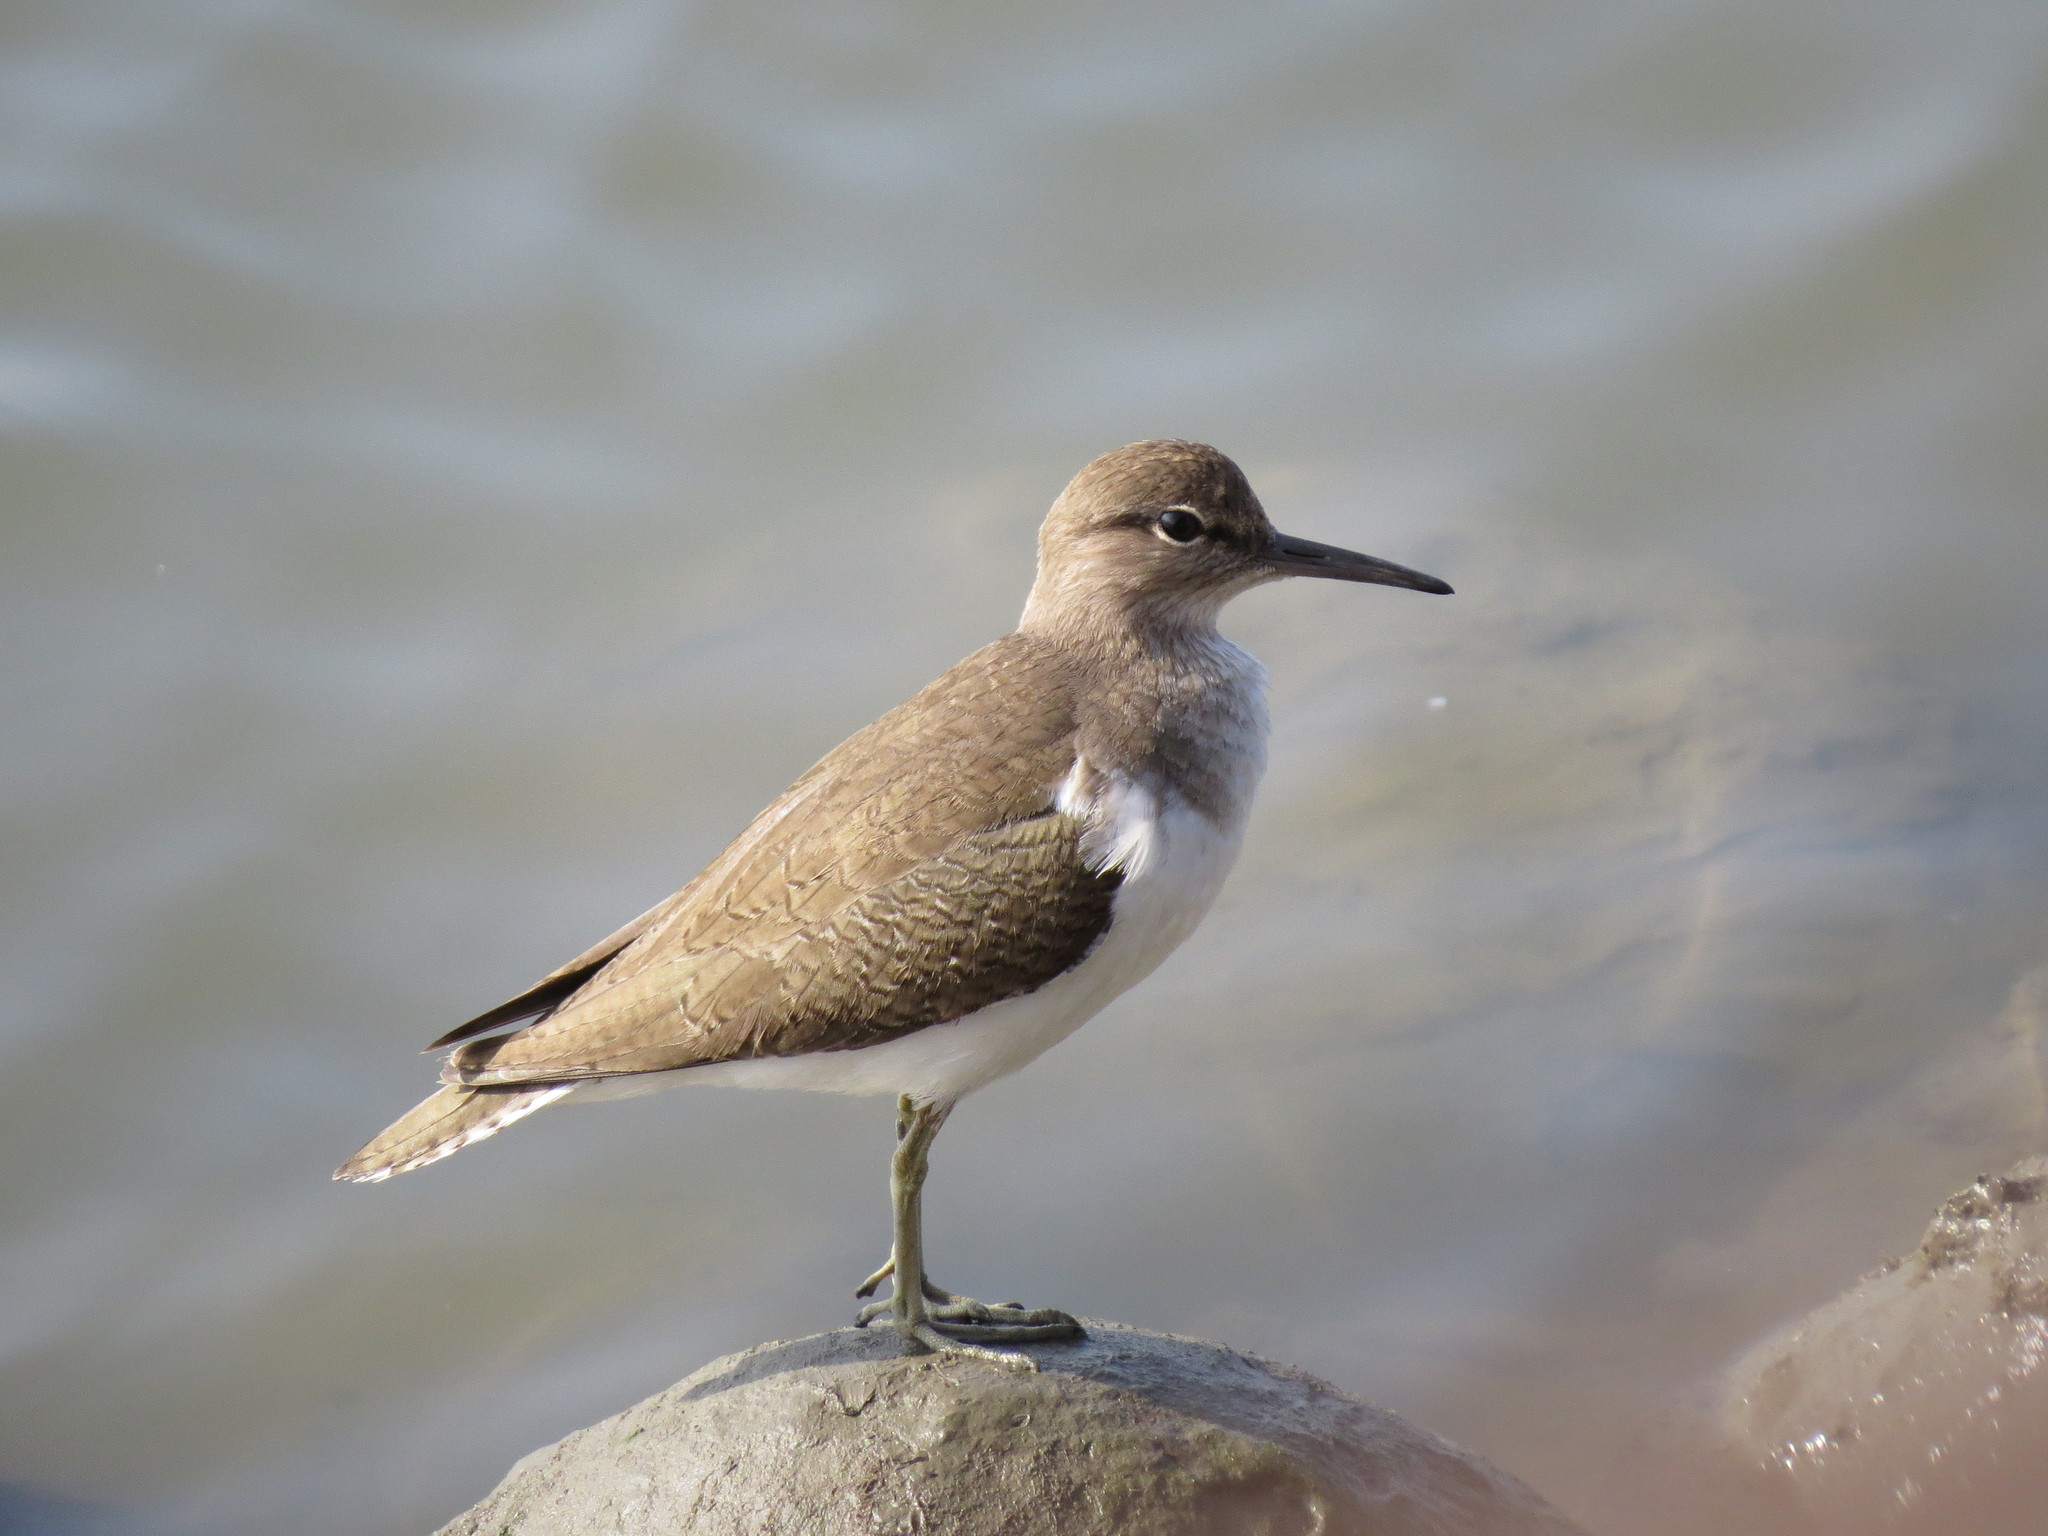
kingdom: Animalia
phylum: Chordata
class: Aves
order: Charadriiformes
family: Scolopacidae
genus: Actitis
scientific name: Actitis hypoleucos
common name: Common sandpiper
